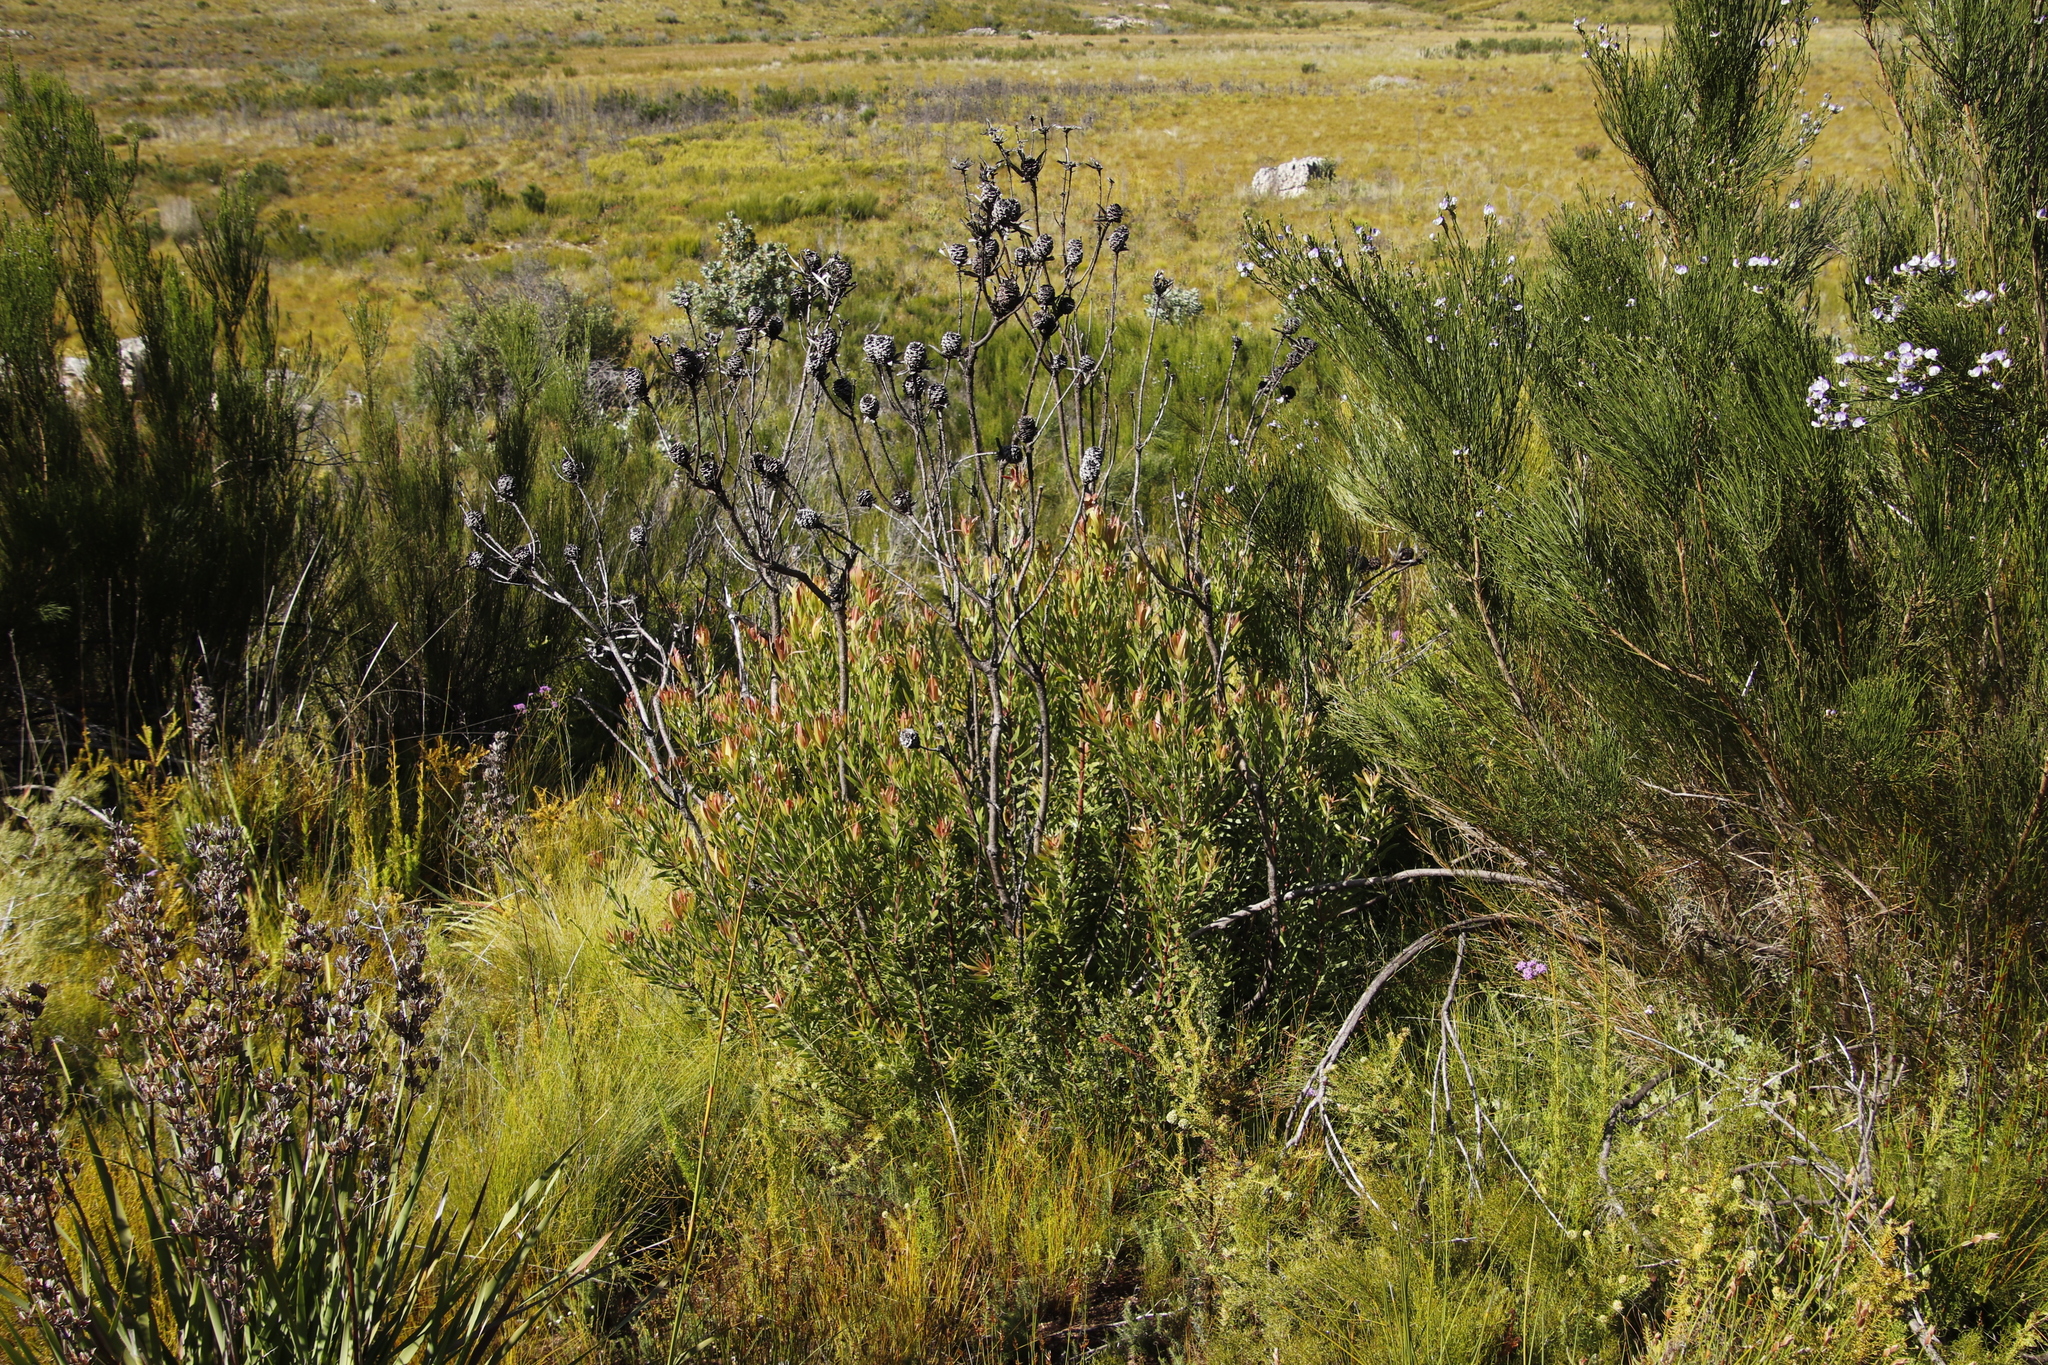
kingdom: Plantae
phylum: Tracheophyta
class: Magnoliopsida
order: Proteales
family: Proteaceae
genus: Leucadendron
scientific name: Leucadendron spissifolium
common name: Spear-leaf conebush
